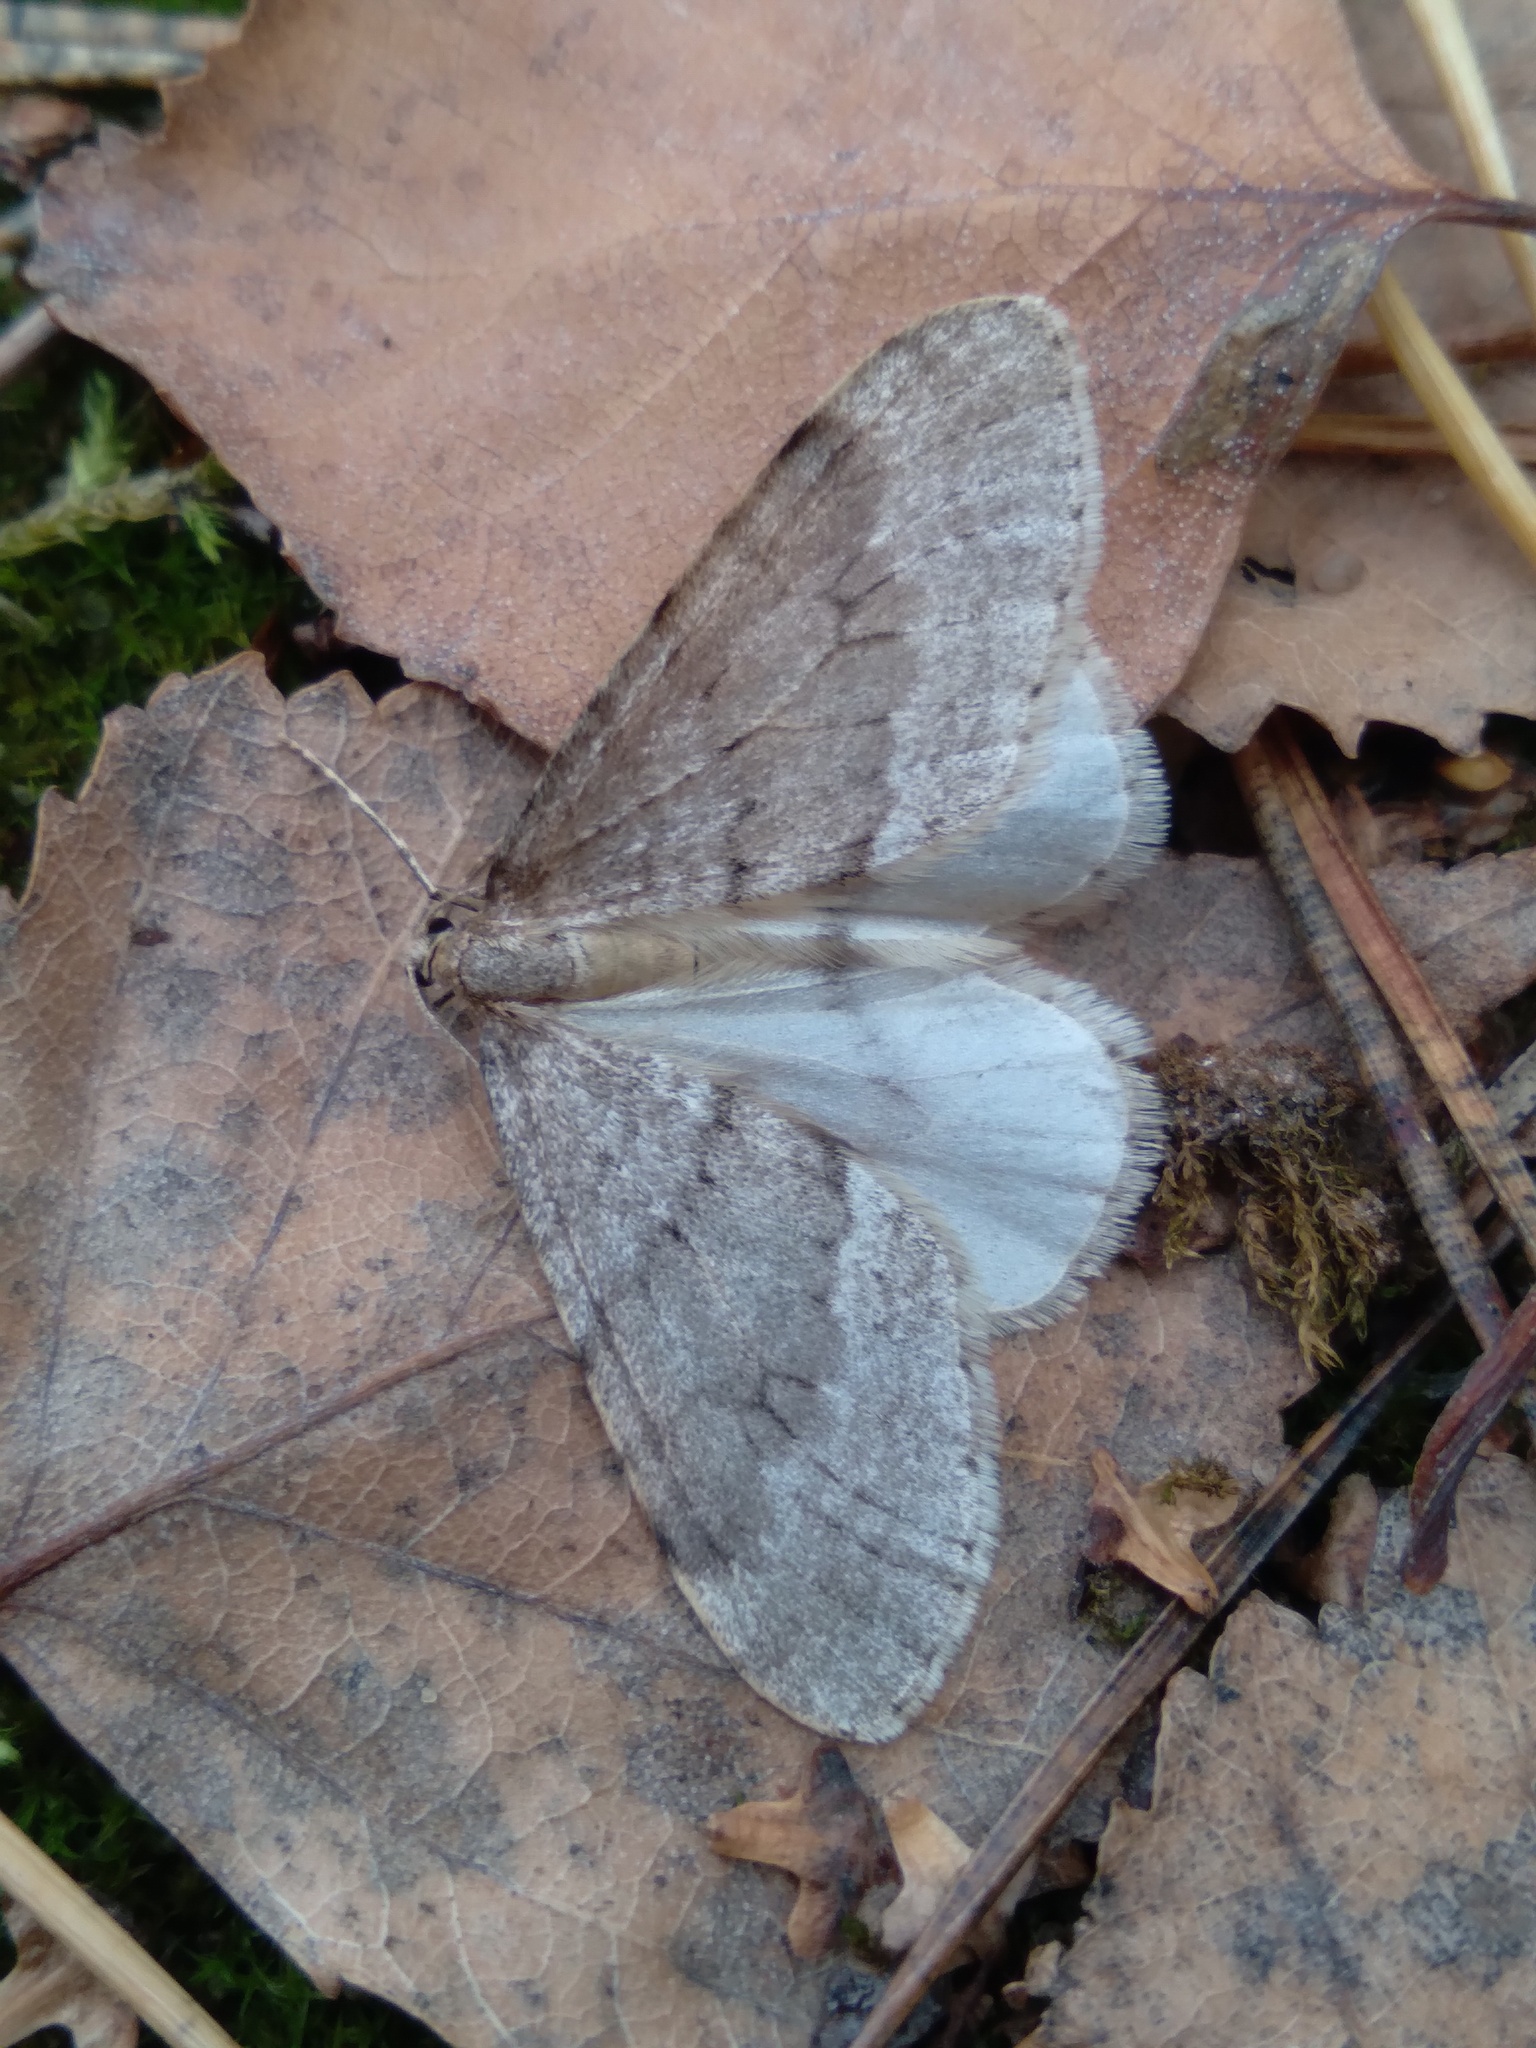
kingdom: Animalia
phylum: Arthropoda
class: Insecta
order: Lepidoptera
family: Geometridae
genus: Operophtera
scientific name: Operophtera fagata
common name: Northern winter moth
